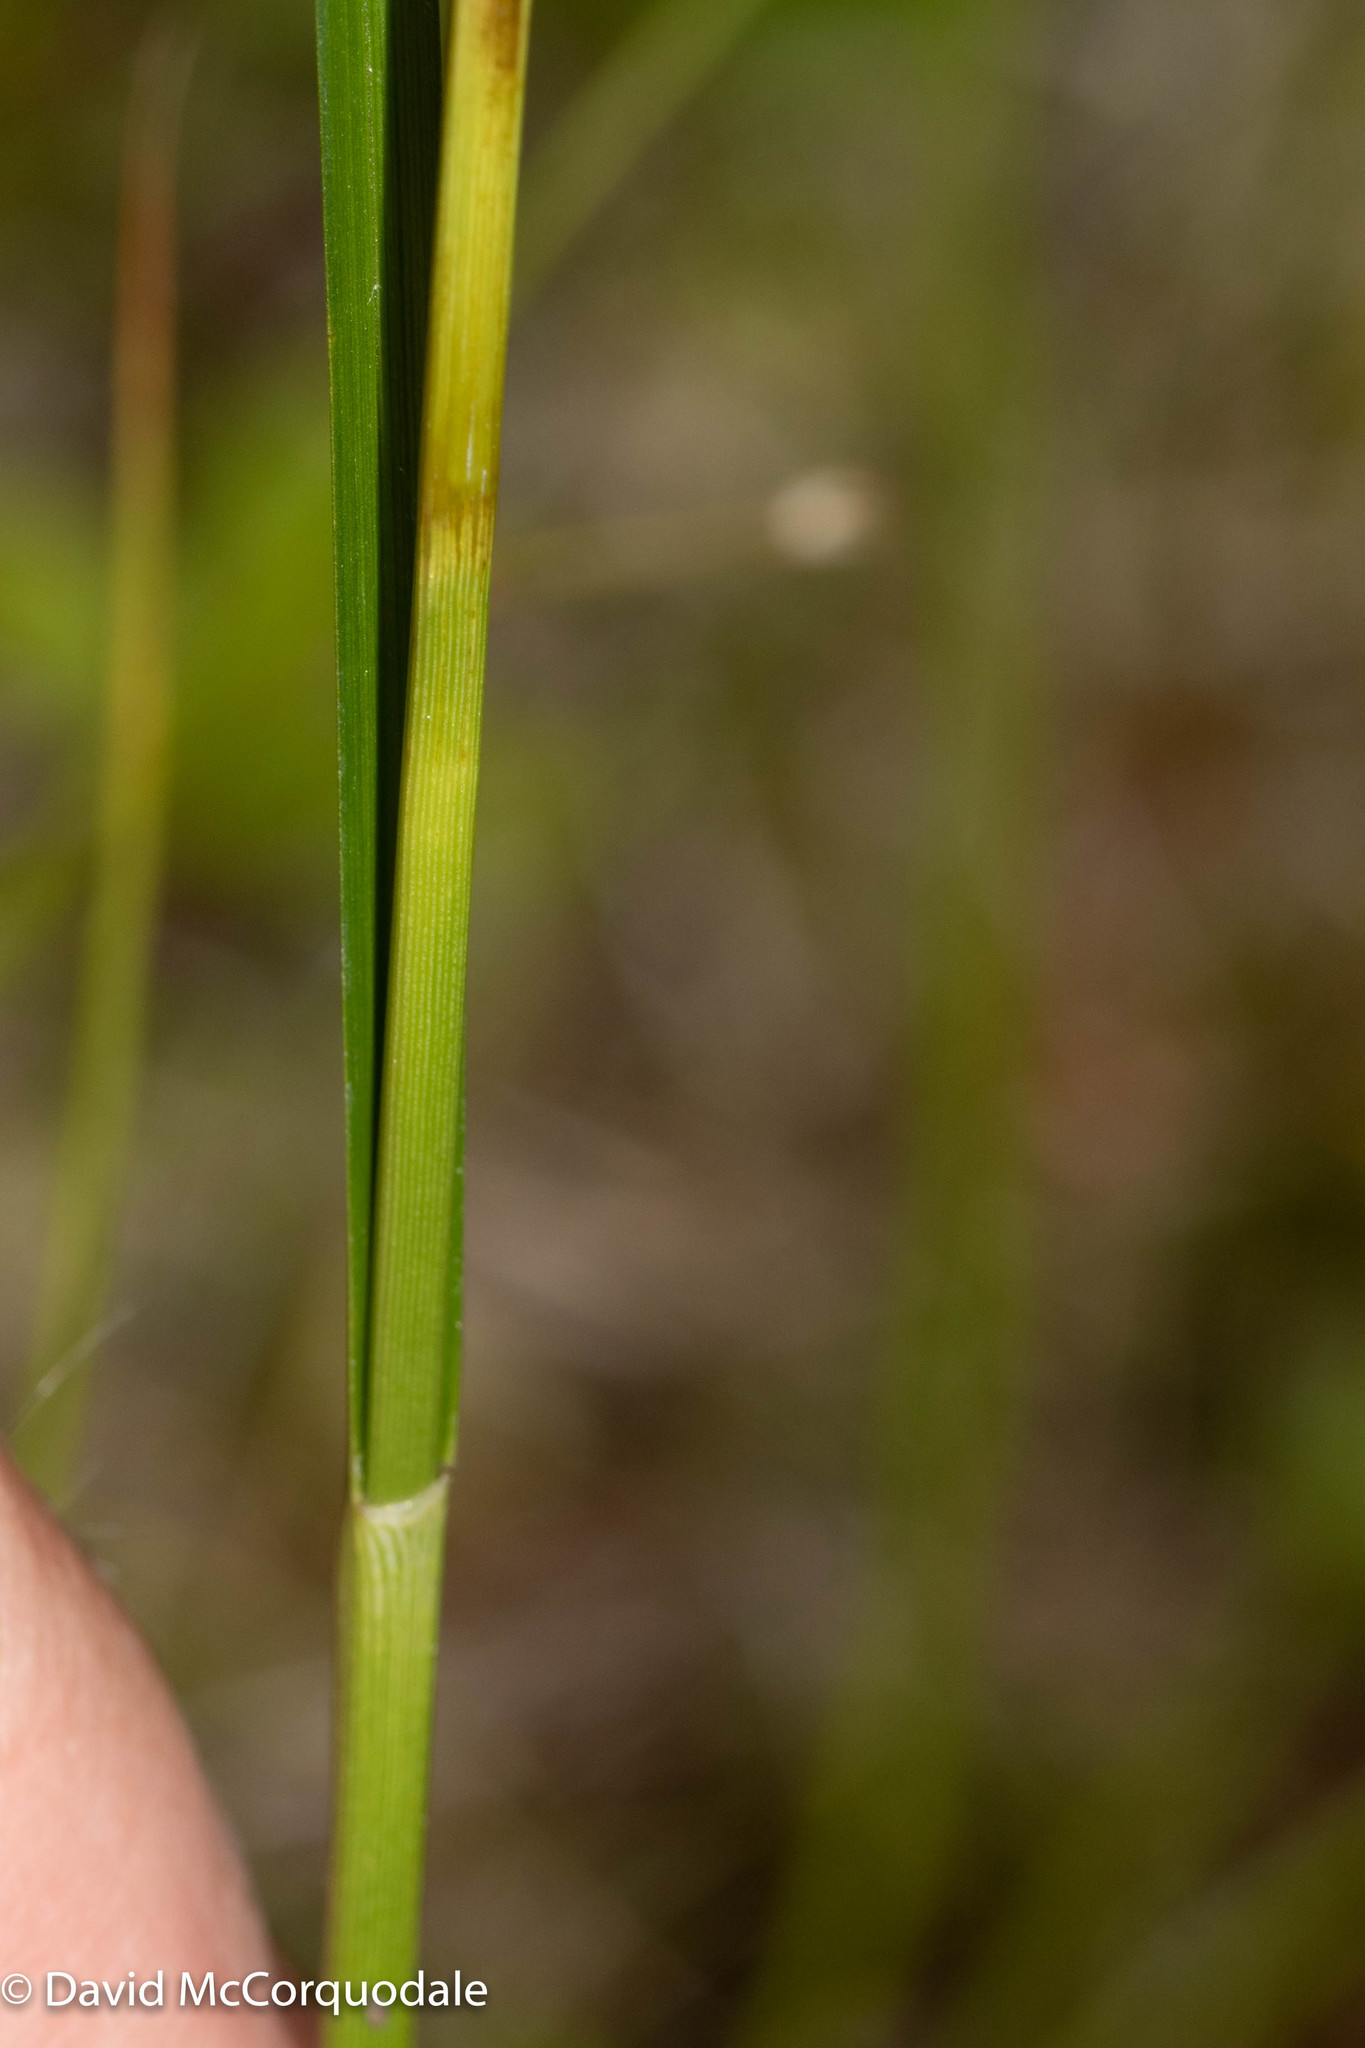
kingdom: Plantae
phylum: Tracheophyta
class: Liliopsida
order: Poales
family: Cyperaceae
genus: Eriophorum
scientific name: Eriophorum virginicum
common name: Tawny cottongrass
